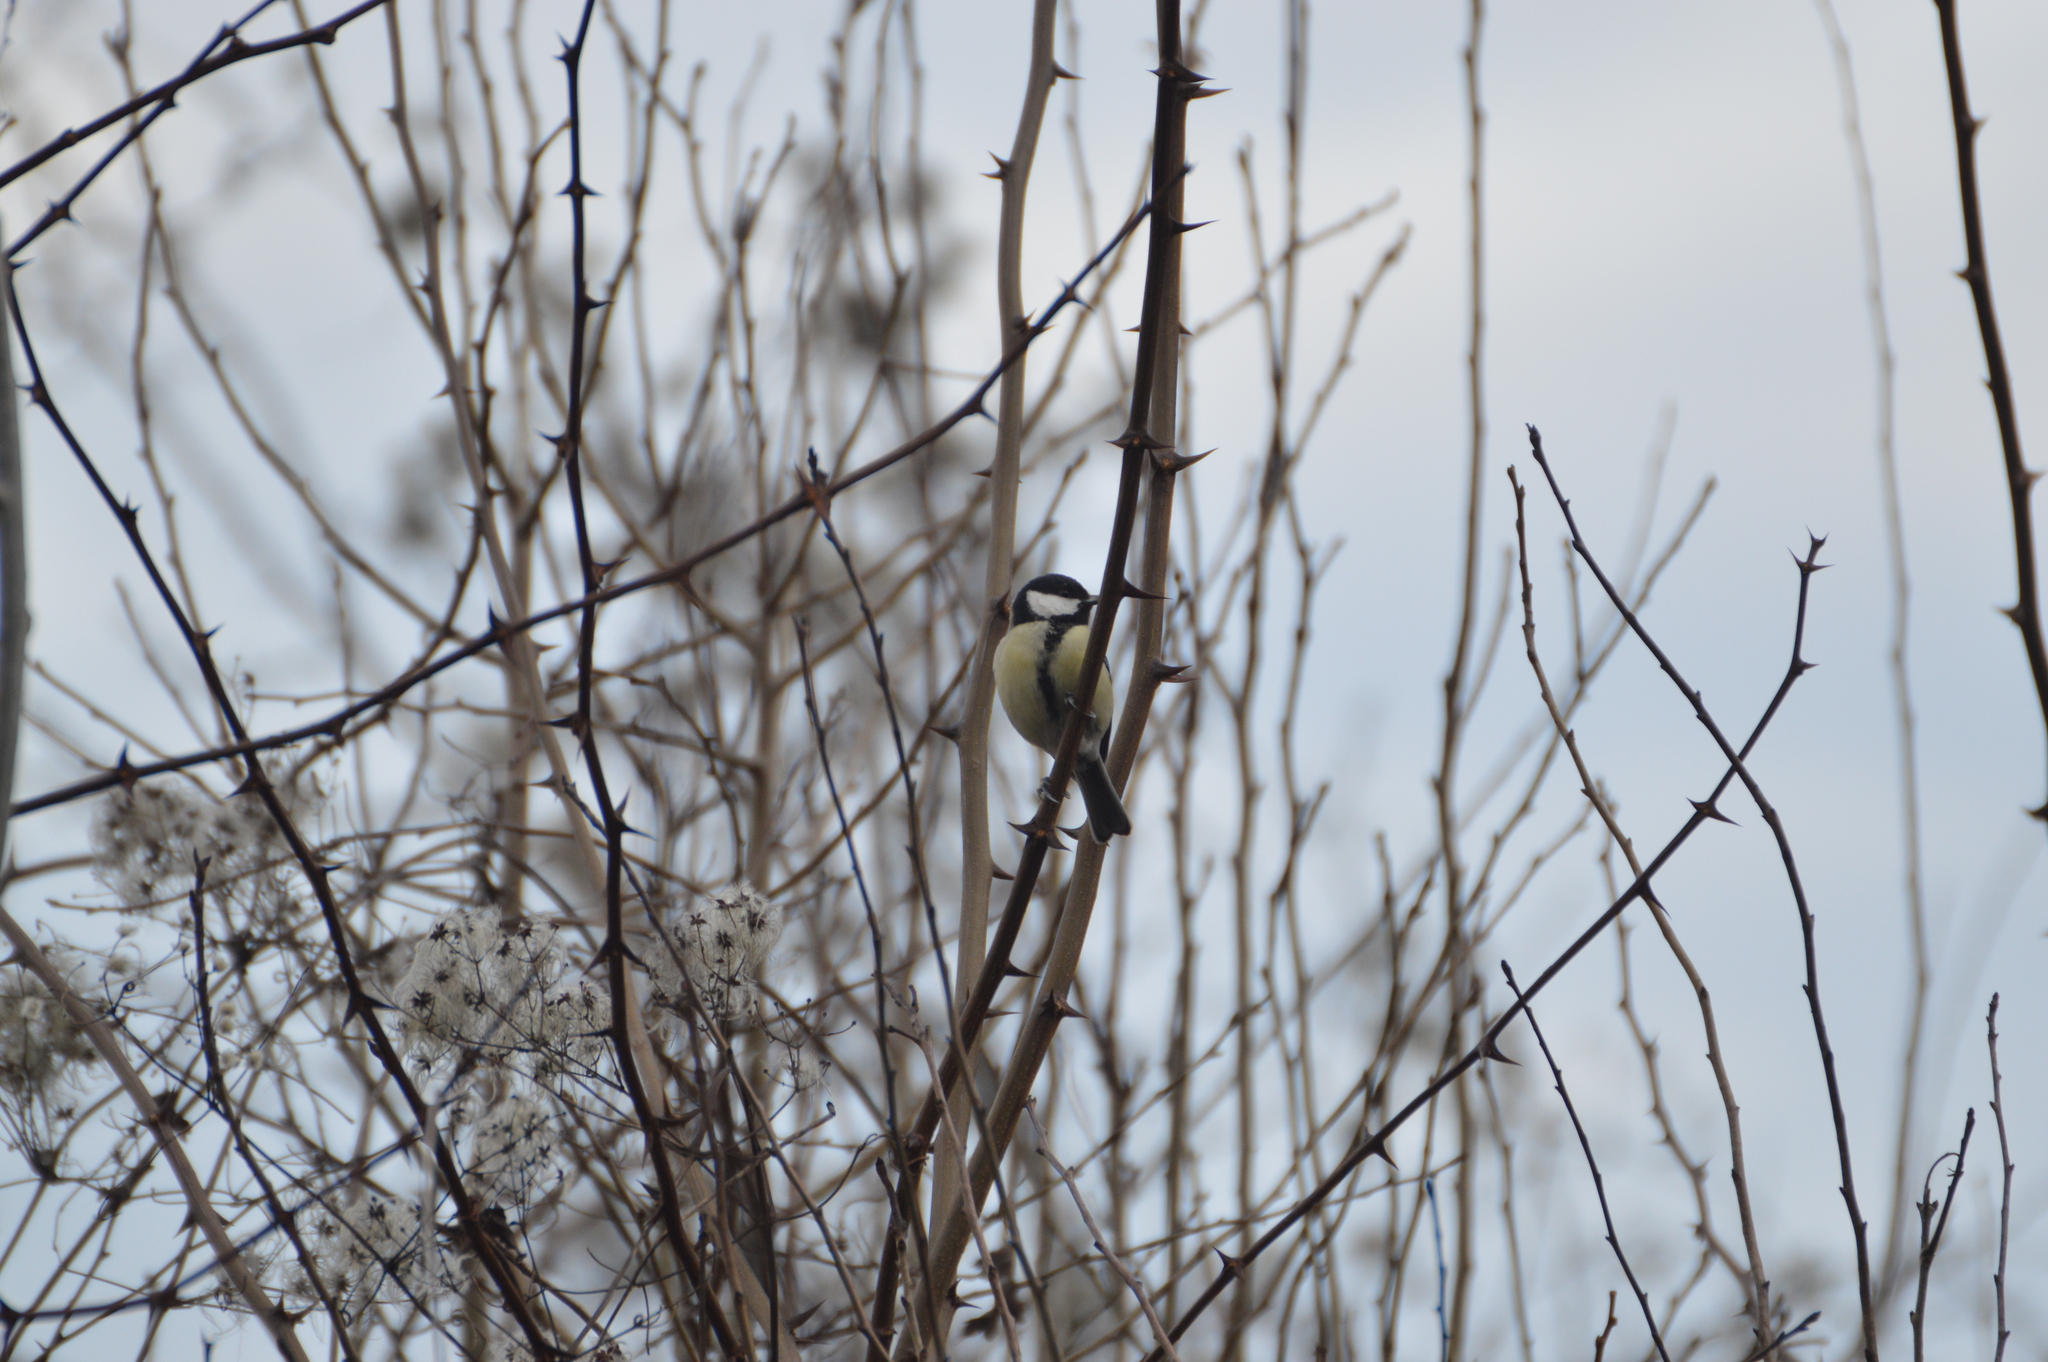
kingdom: Animalia
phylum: Chordata
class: Aves
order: Passeriformes
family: Paridae
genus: Parus
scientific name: Parus major
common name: Great tit
